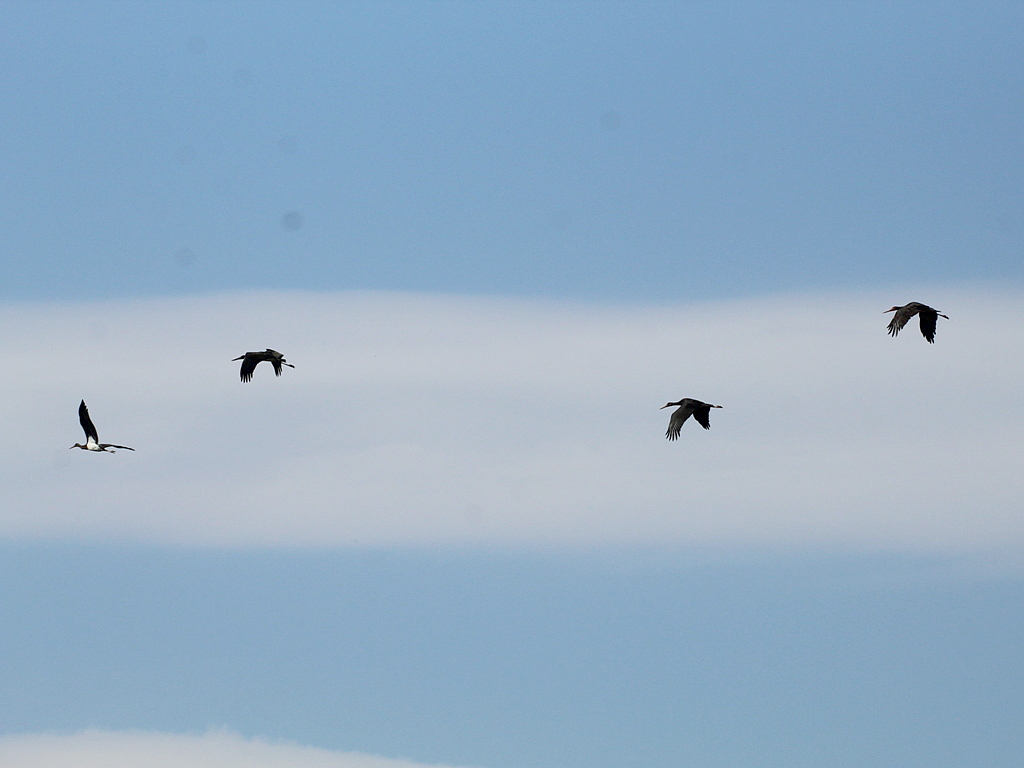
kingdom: Animalia
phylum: Chordata
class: Aves
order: Ciconiiformes
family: Ciconiidae
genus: Ciconia
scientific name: Ciconia nigra
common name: Black stork
